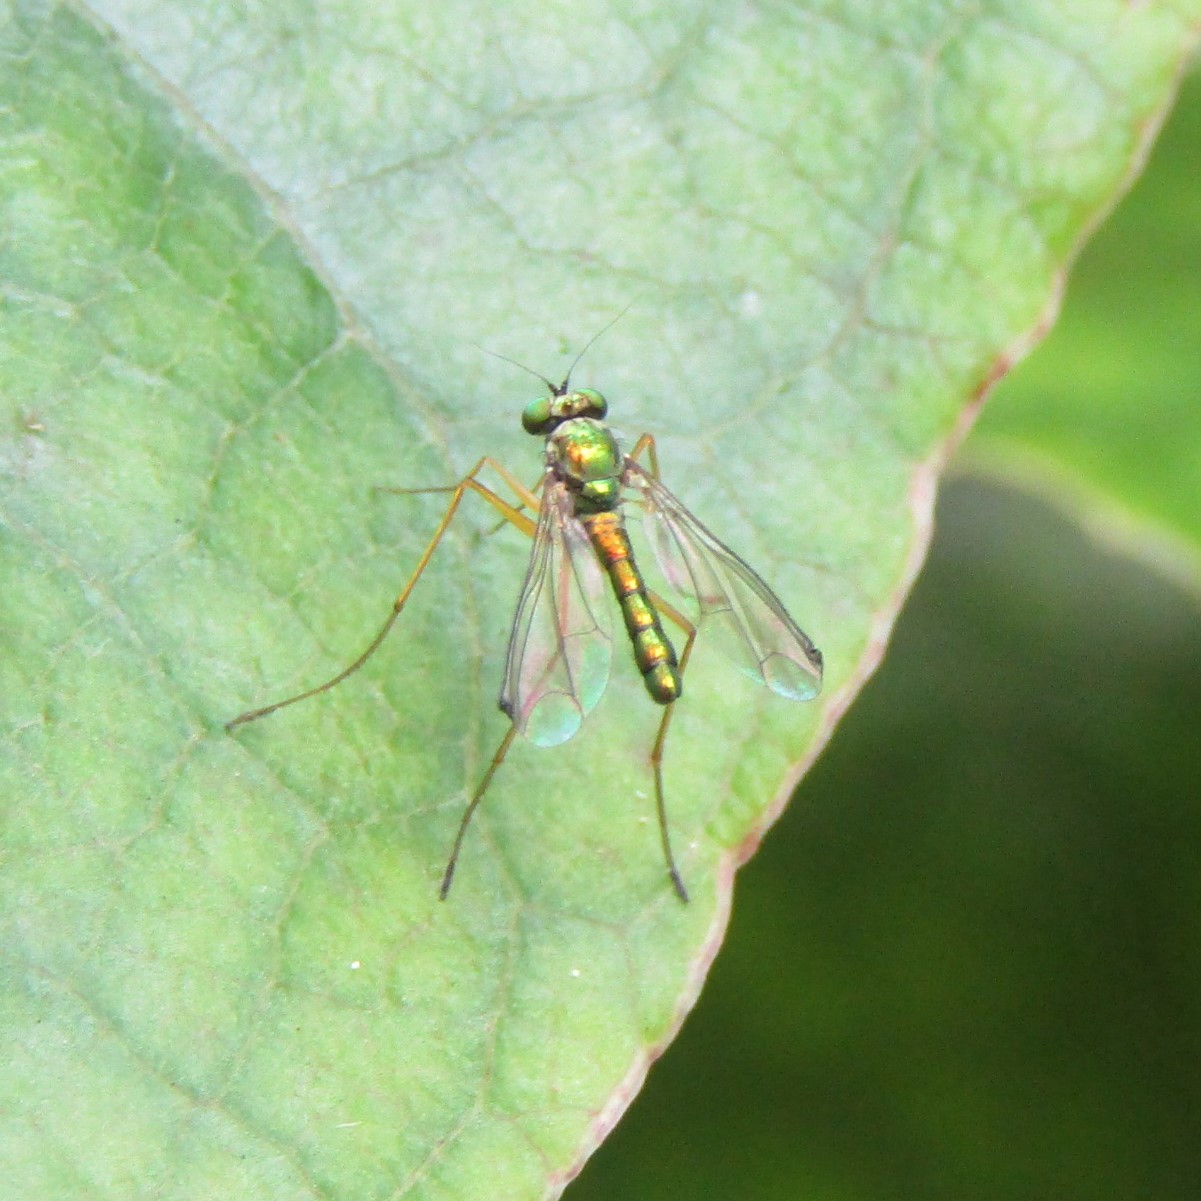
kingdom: Animalia
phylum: Arthropoda
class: Insecta
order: Diptera
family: Dolichopodidae
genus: Parentia
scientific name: Parentia anomalicosta
